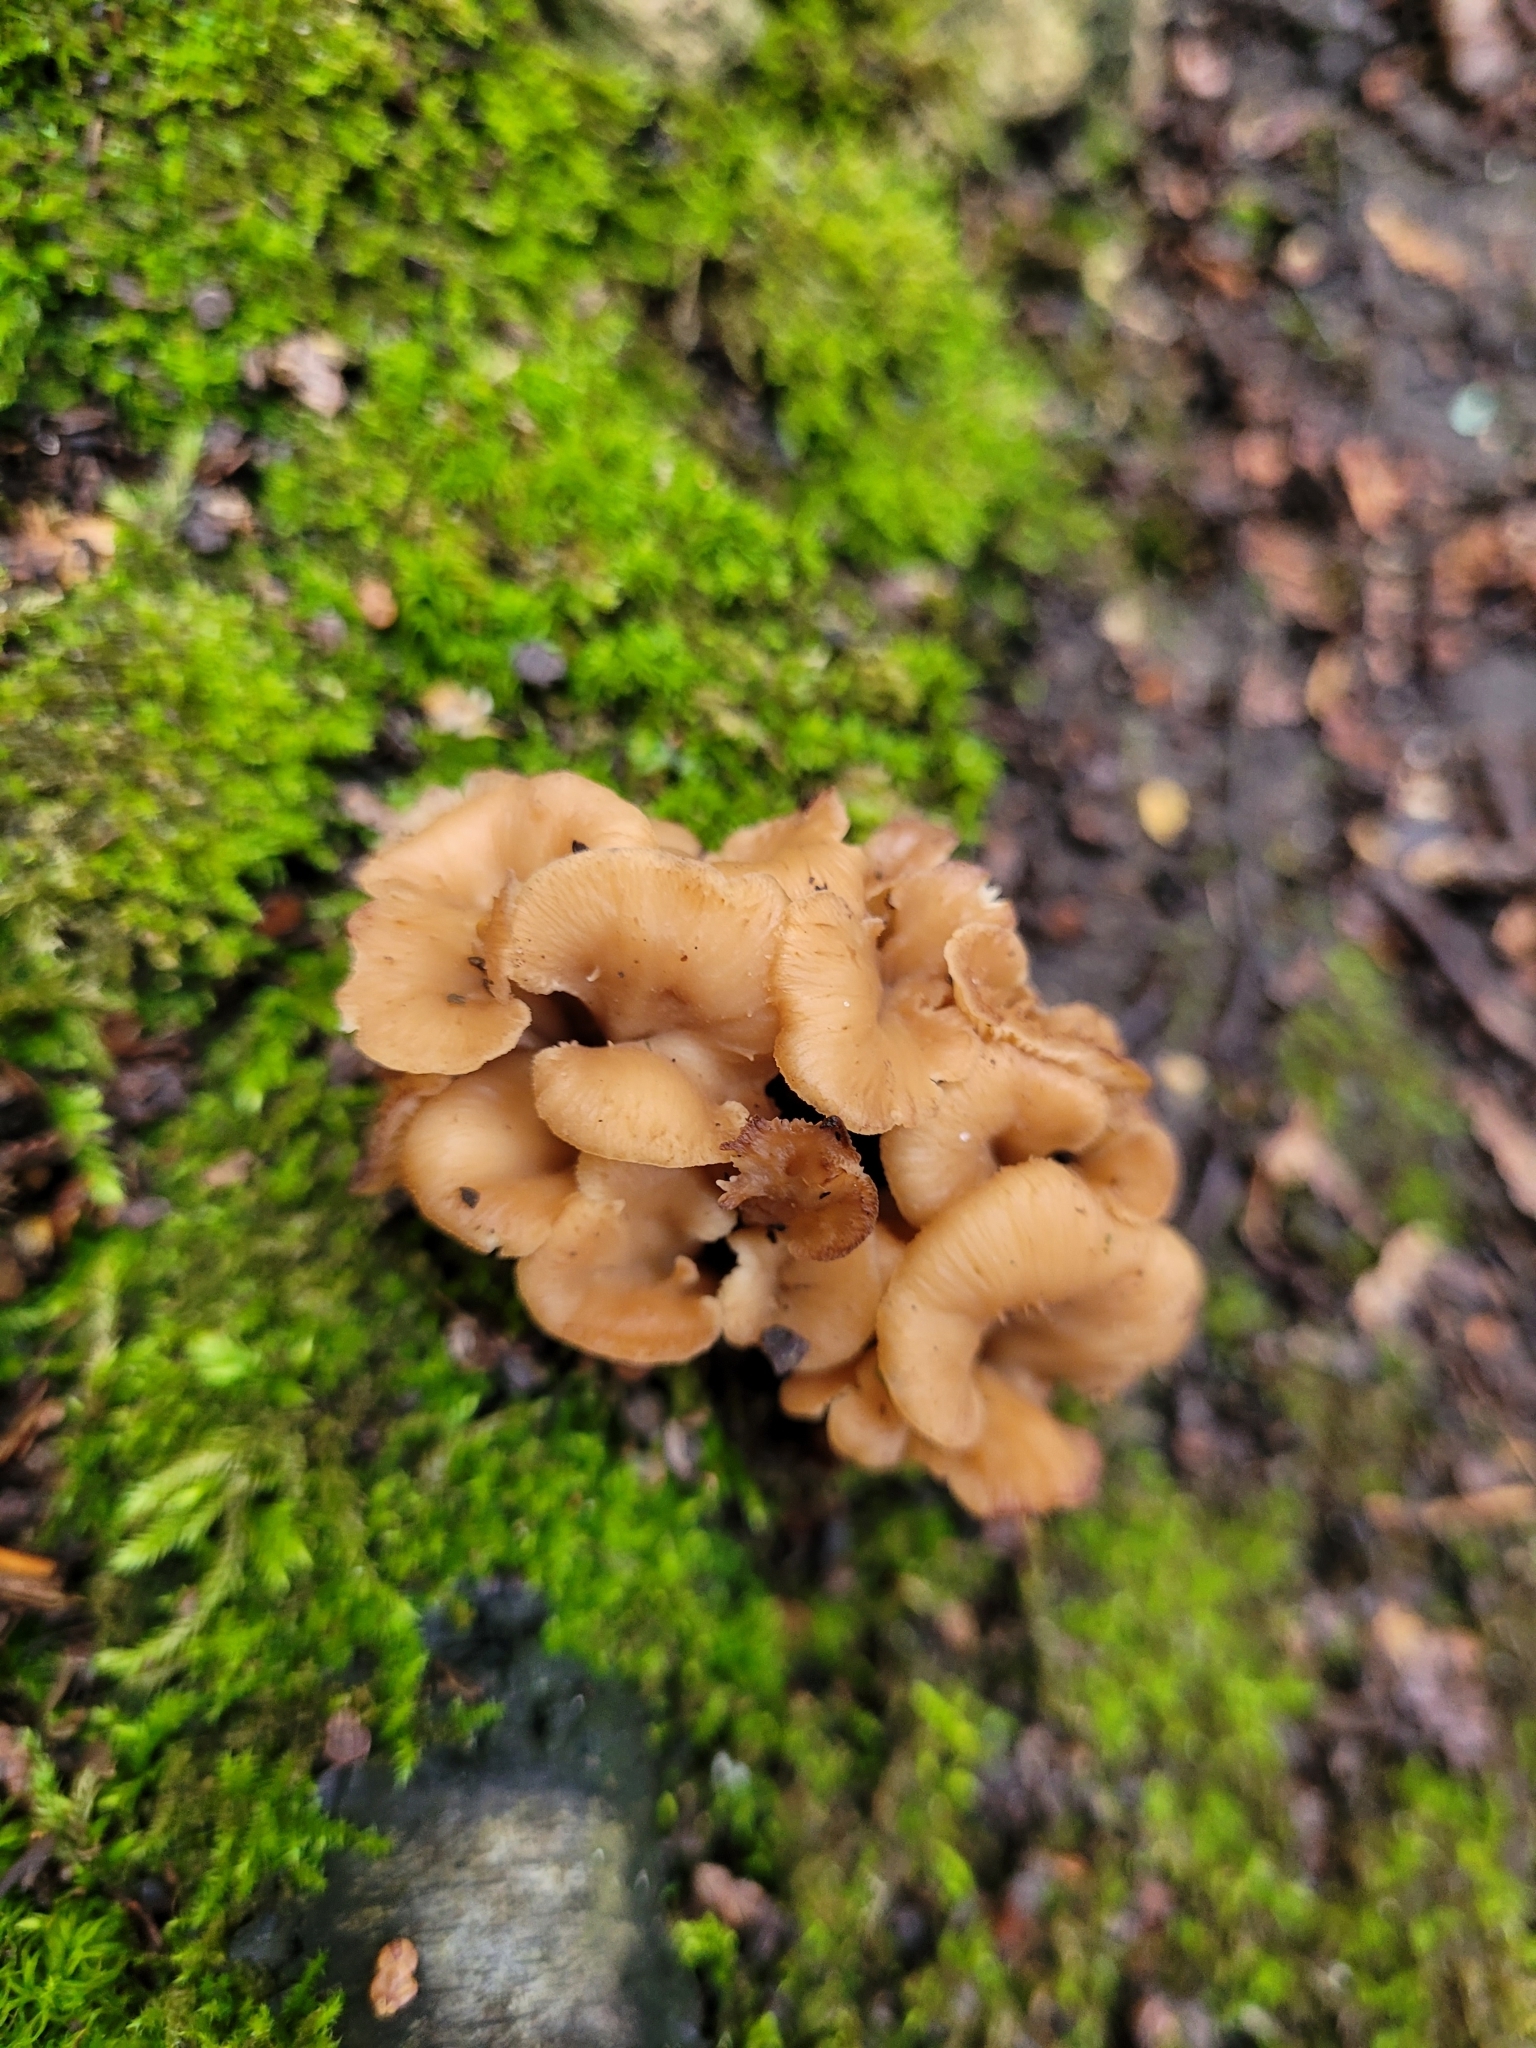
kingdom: Fungi
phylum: Basidiomycota
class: Agaricomycetes
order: Cantharellales
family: Hydnaceae
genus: Craterellus
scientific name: Craterellus tubaeformis
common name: Yellowfoot
